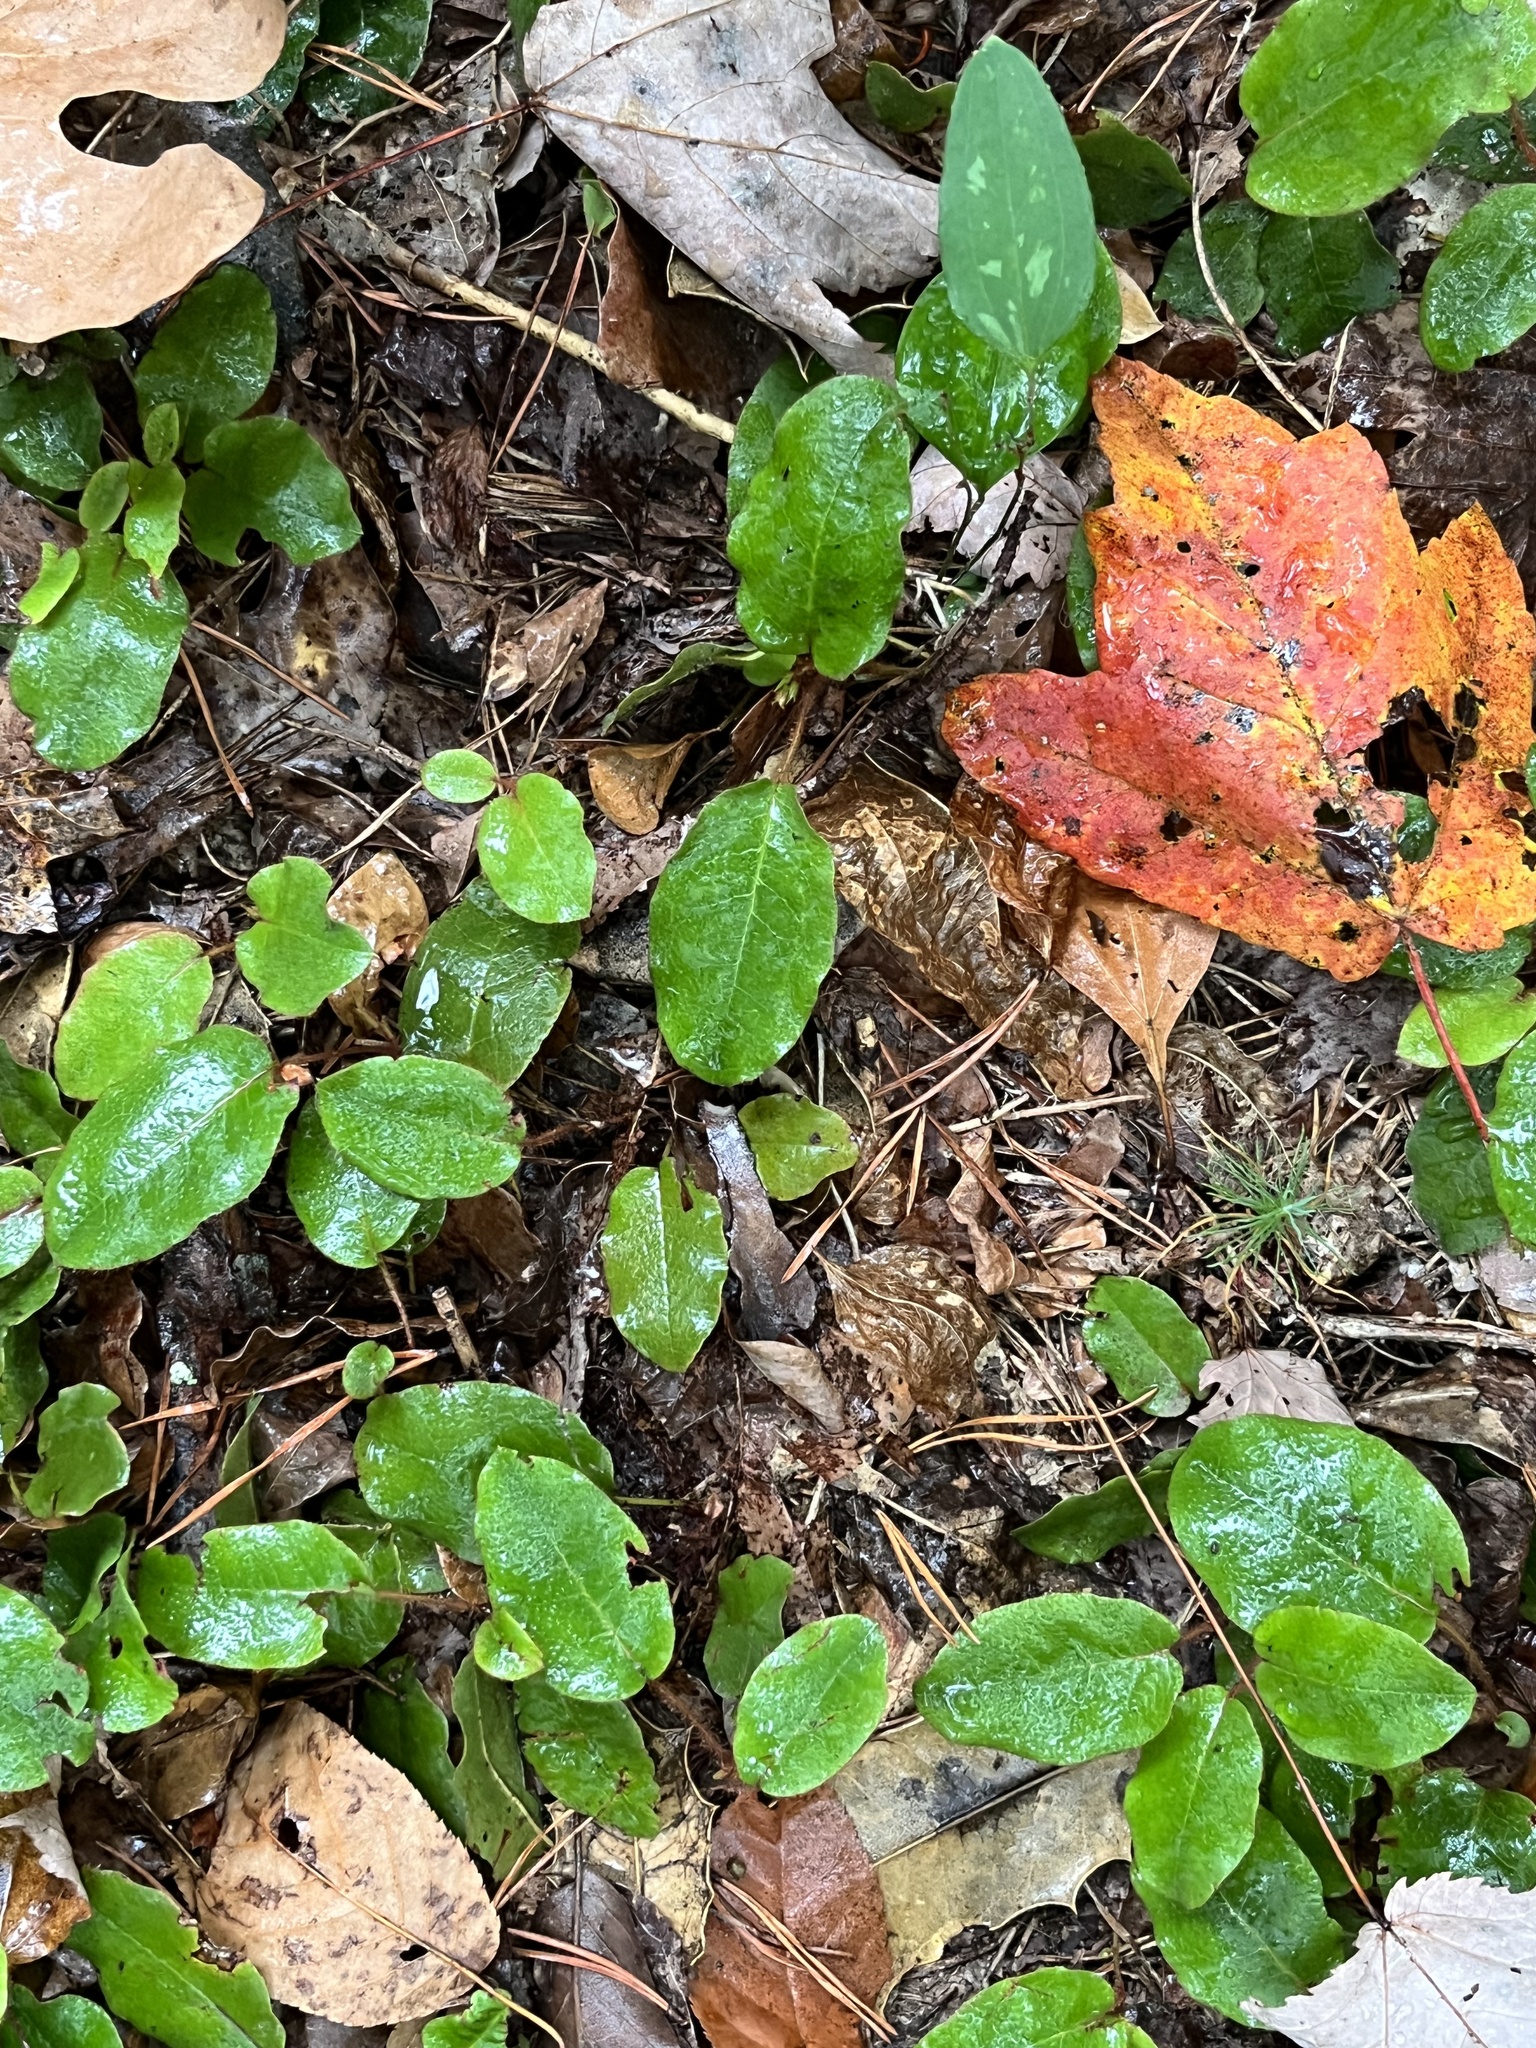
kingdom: Plantae
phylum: Tracheophyta
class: Magnoliopsida
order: Ericales
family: Ericaceae
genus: Epigaea
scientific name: Epigaea repens
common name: Gravelroot
